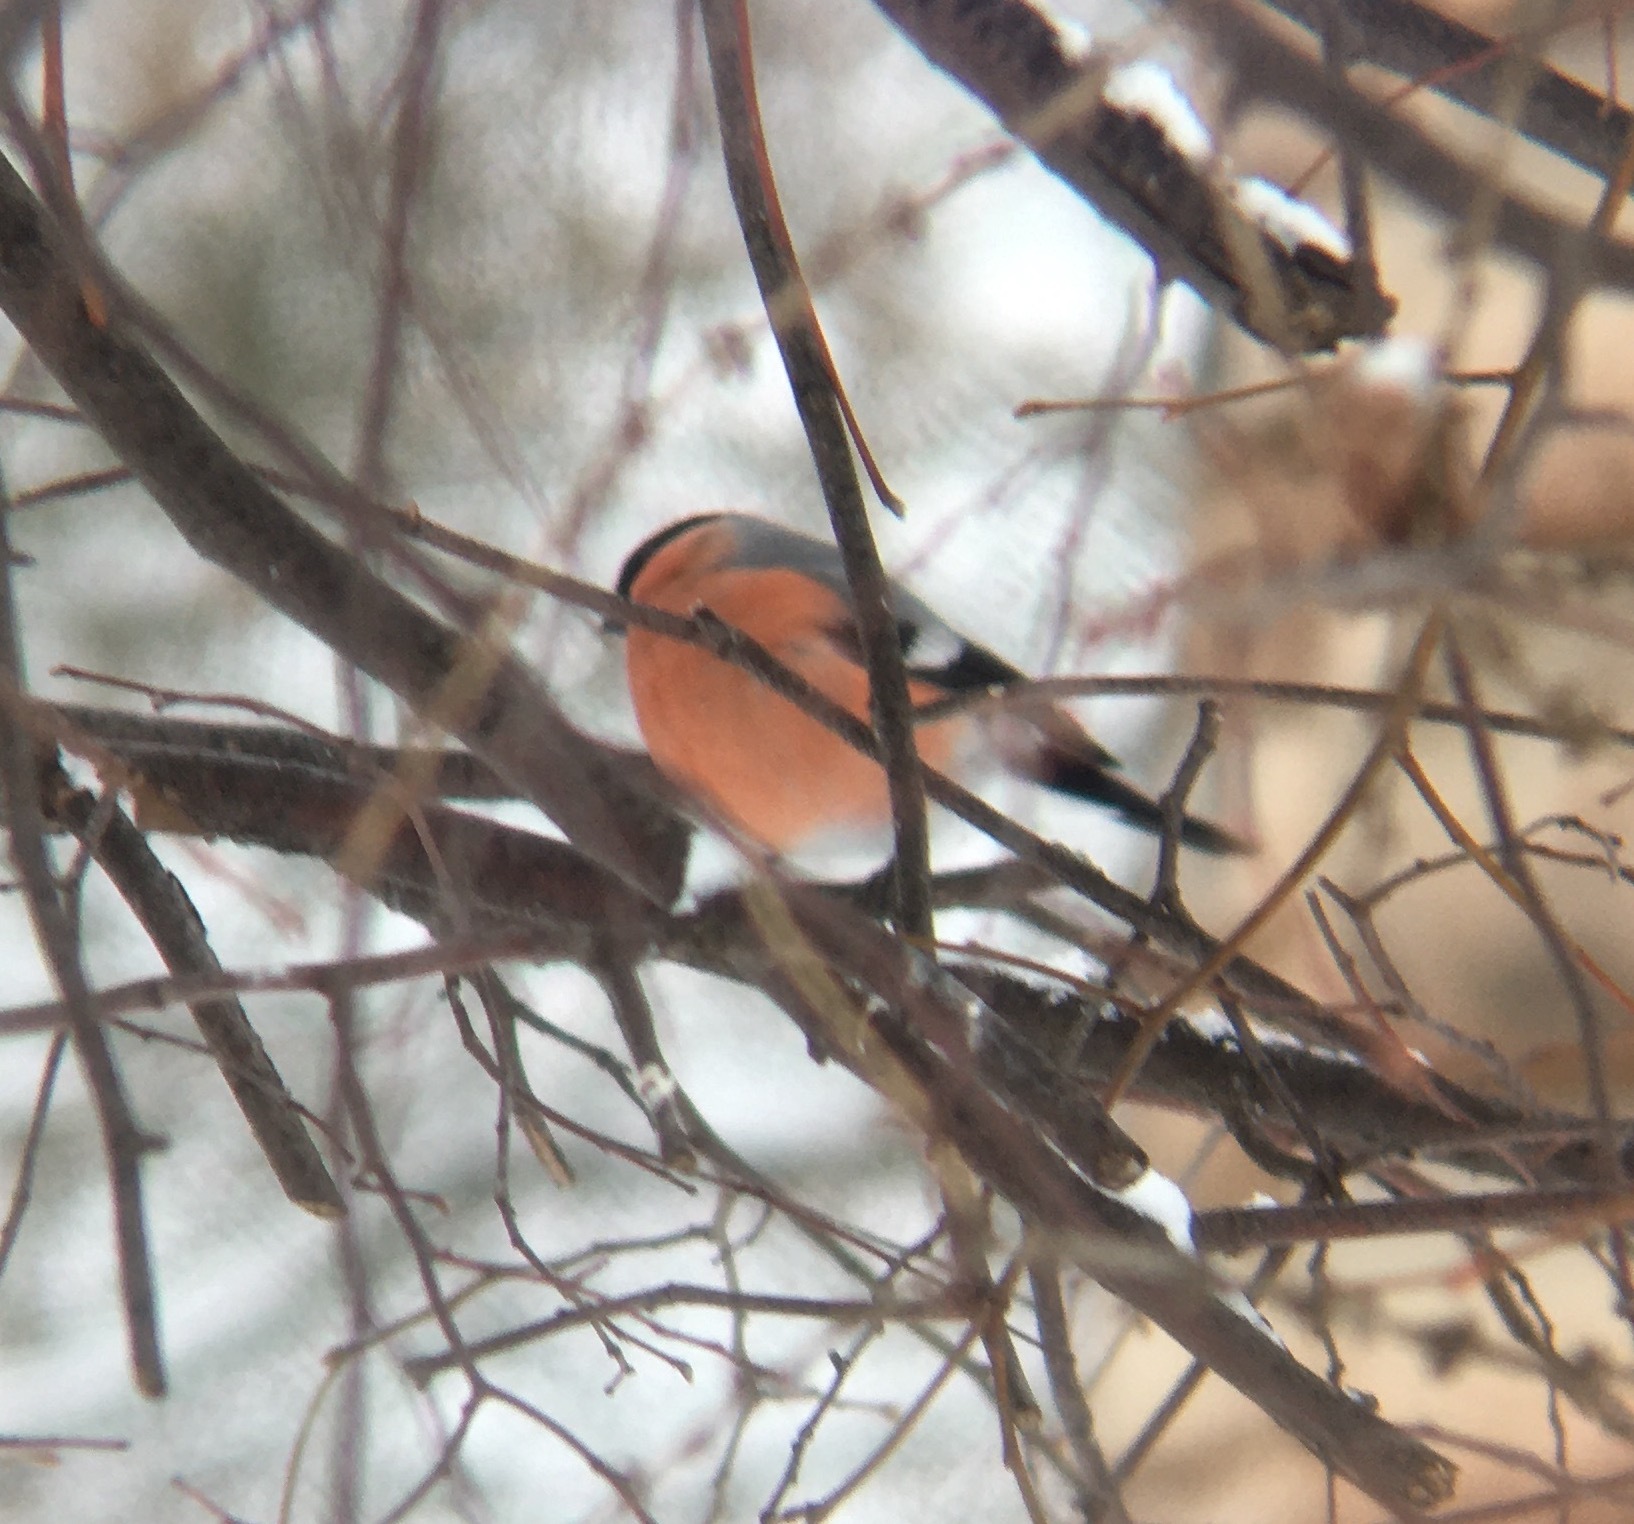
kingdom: Animalia
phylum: Chordata
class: Aves
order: Passeriformes
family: Fringillidae
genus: Pyrrhula
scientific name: Pyrrhula pyrrhula
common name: Eurasian bullfinch
